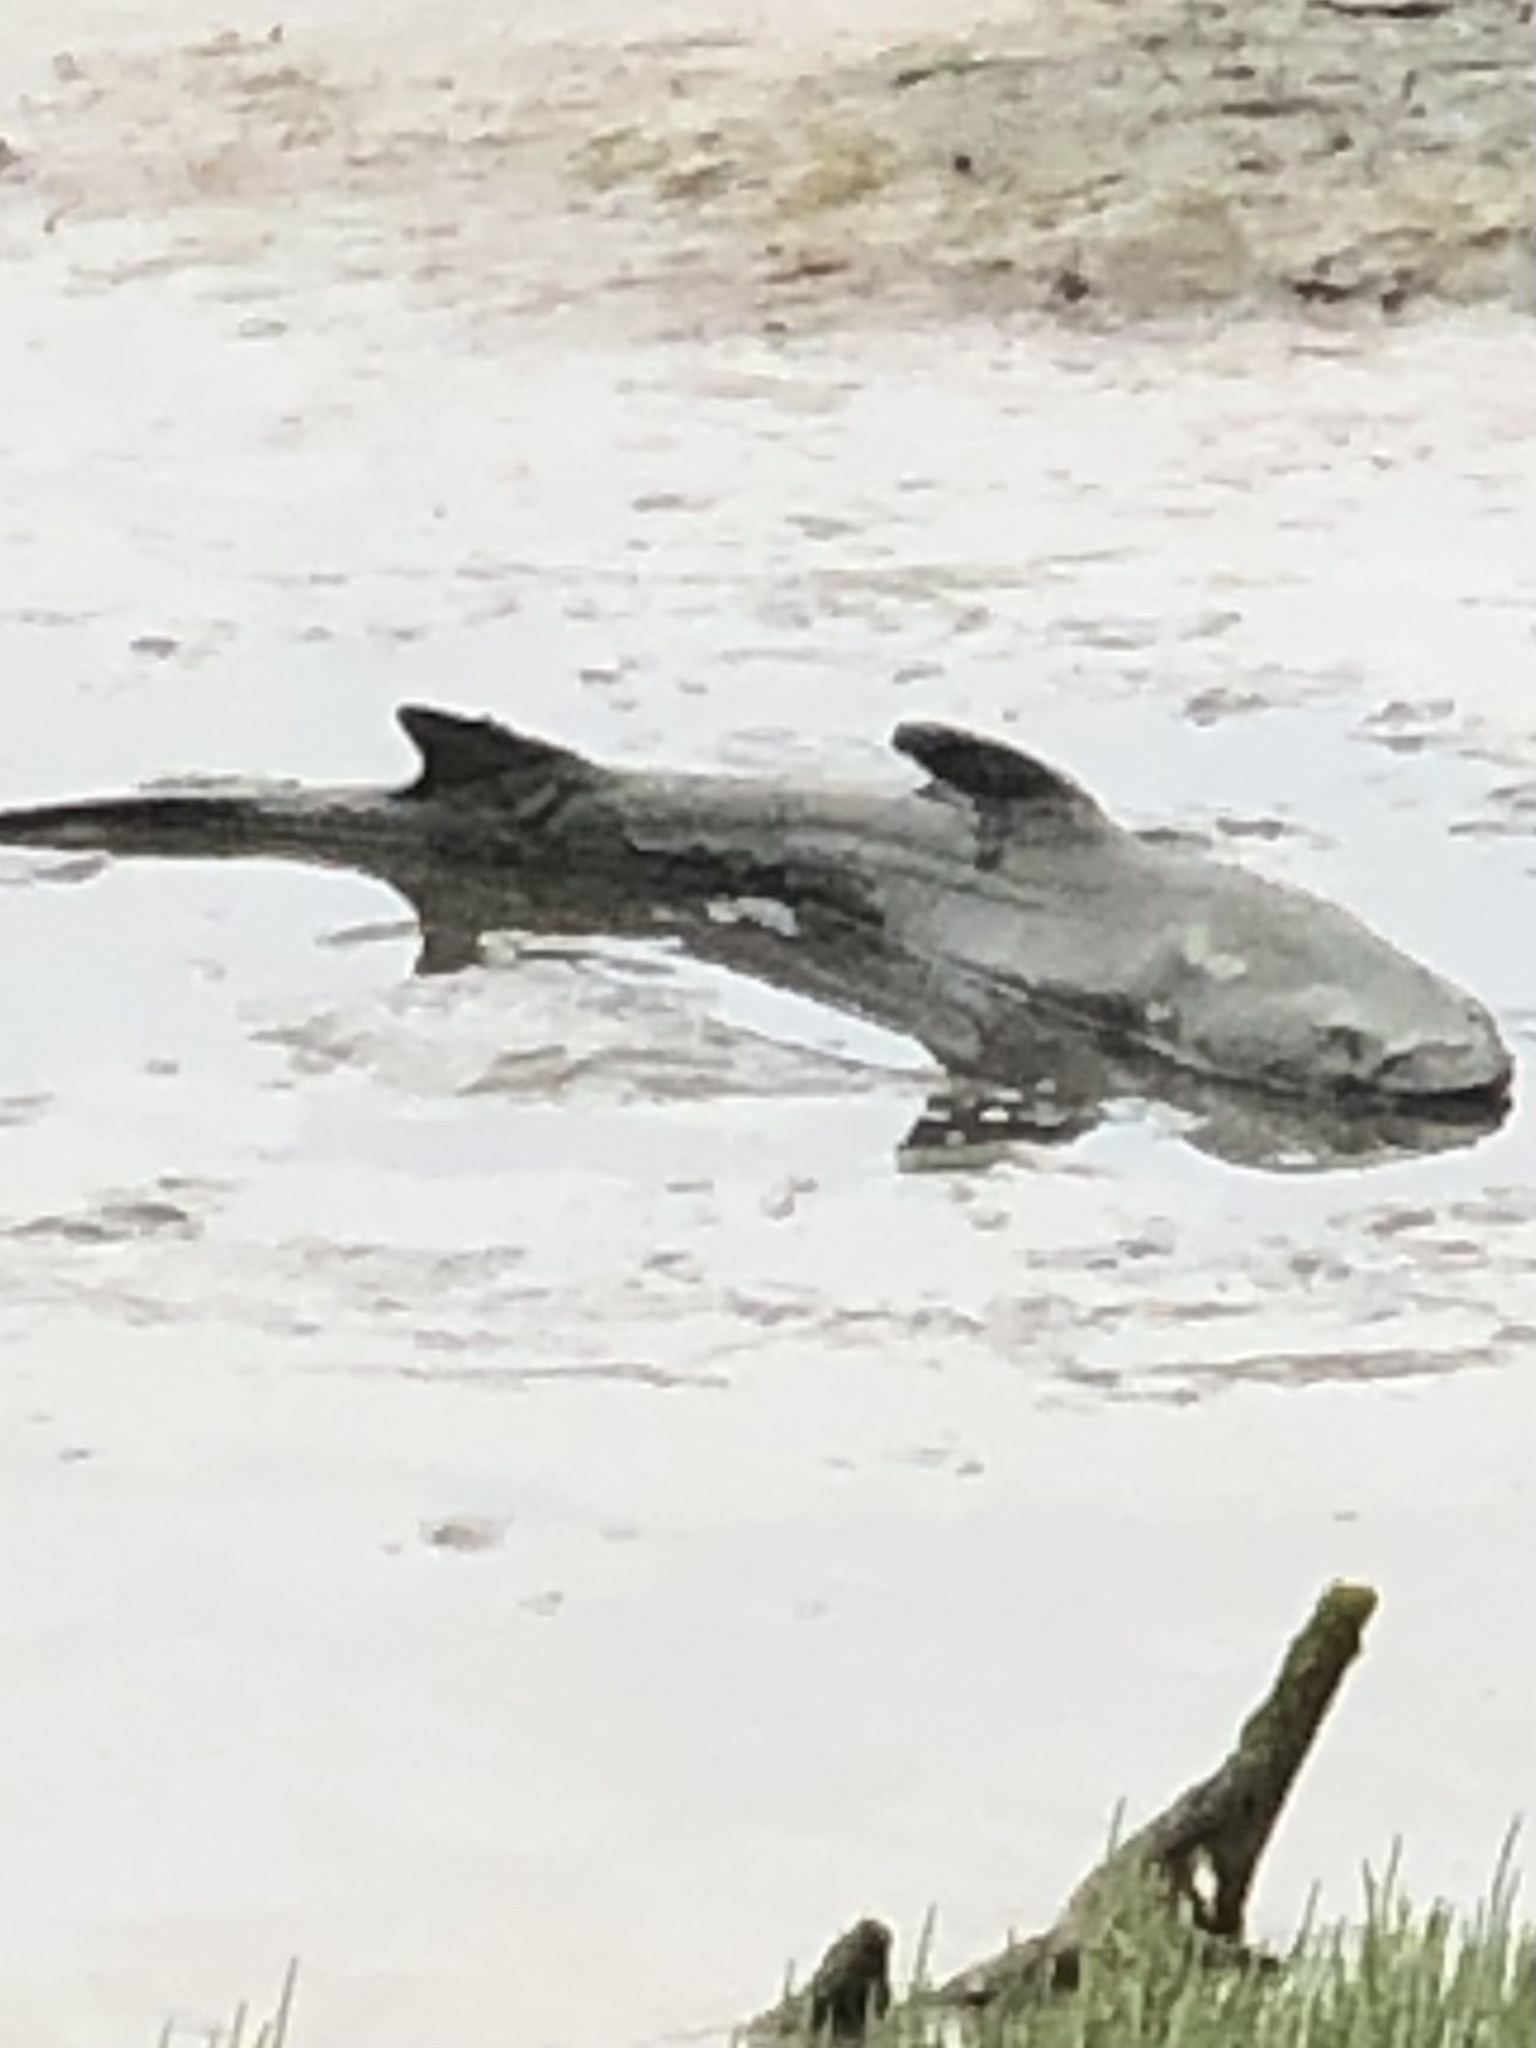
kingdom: Animalia
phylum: Chordata
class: Elasmobranchii
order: Carcharhiniformes
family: Triakidae
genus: Triakis
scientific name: Triakis semifasciata
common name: Leopard shark
